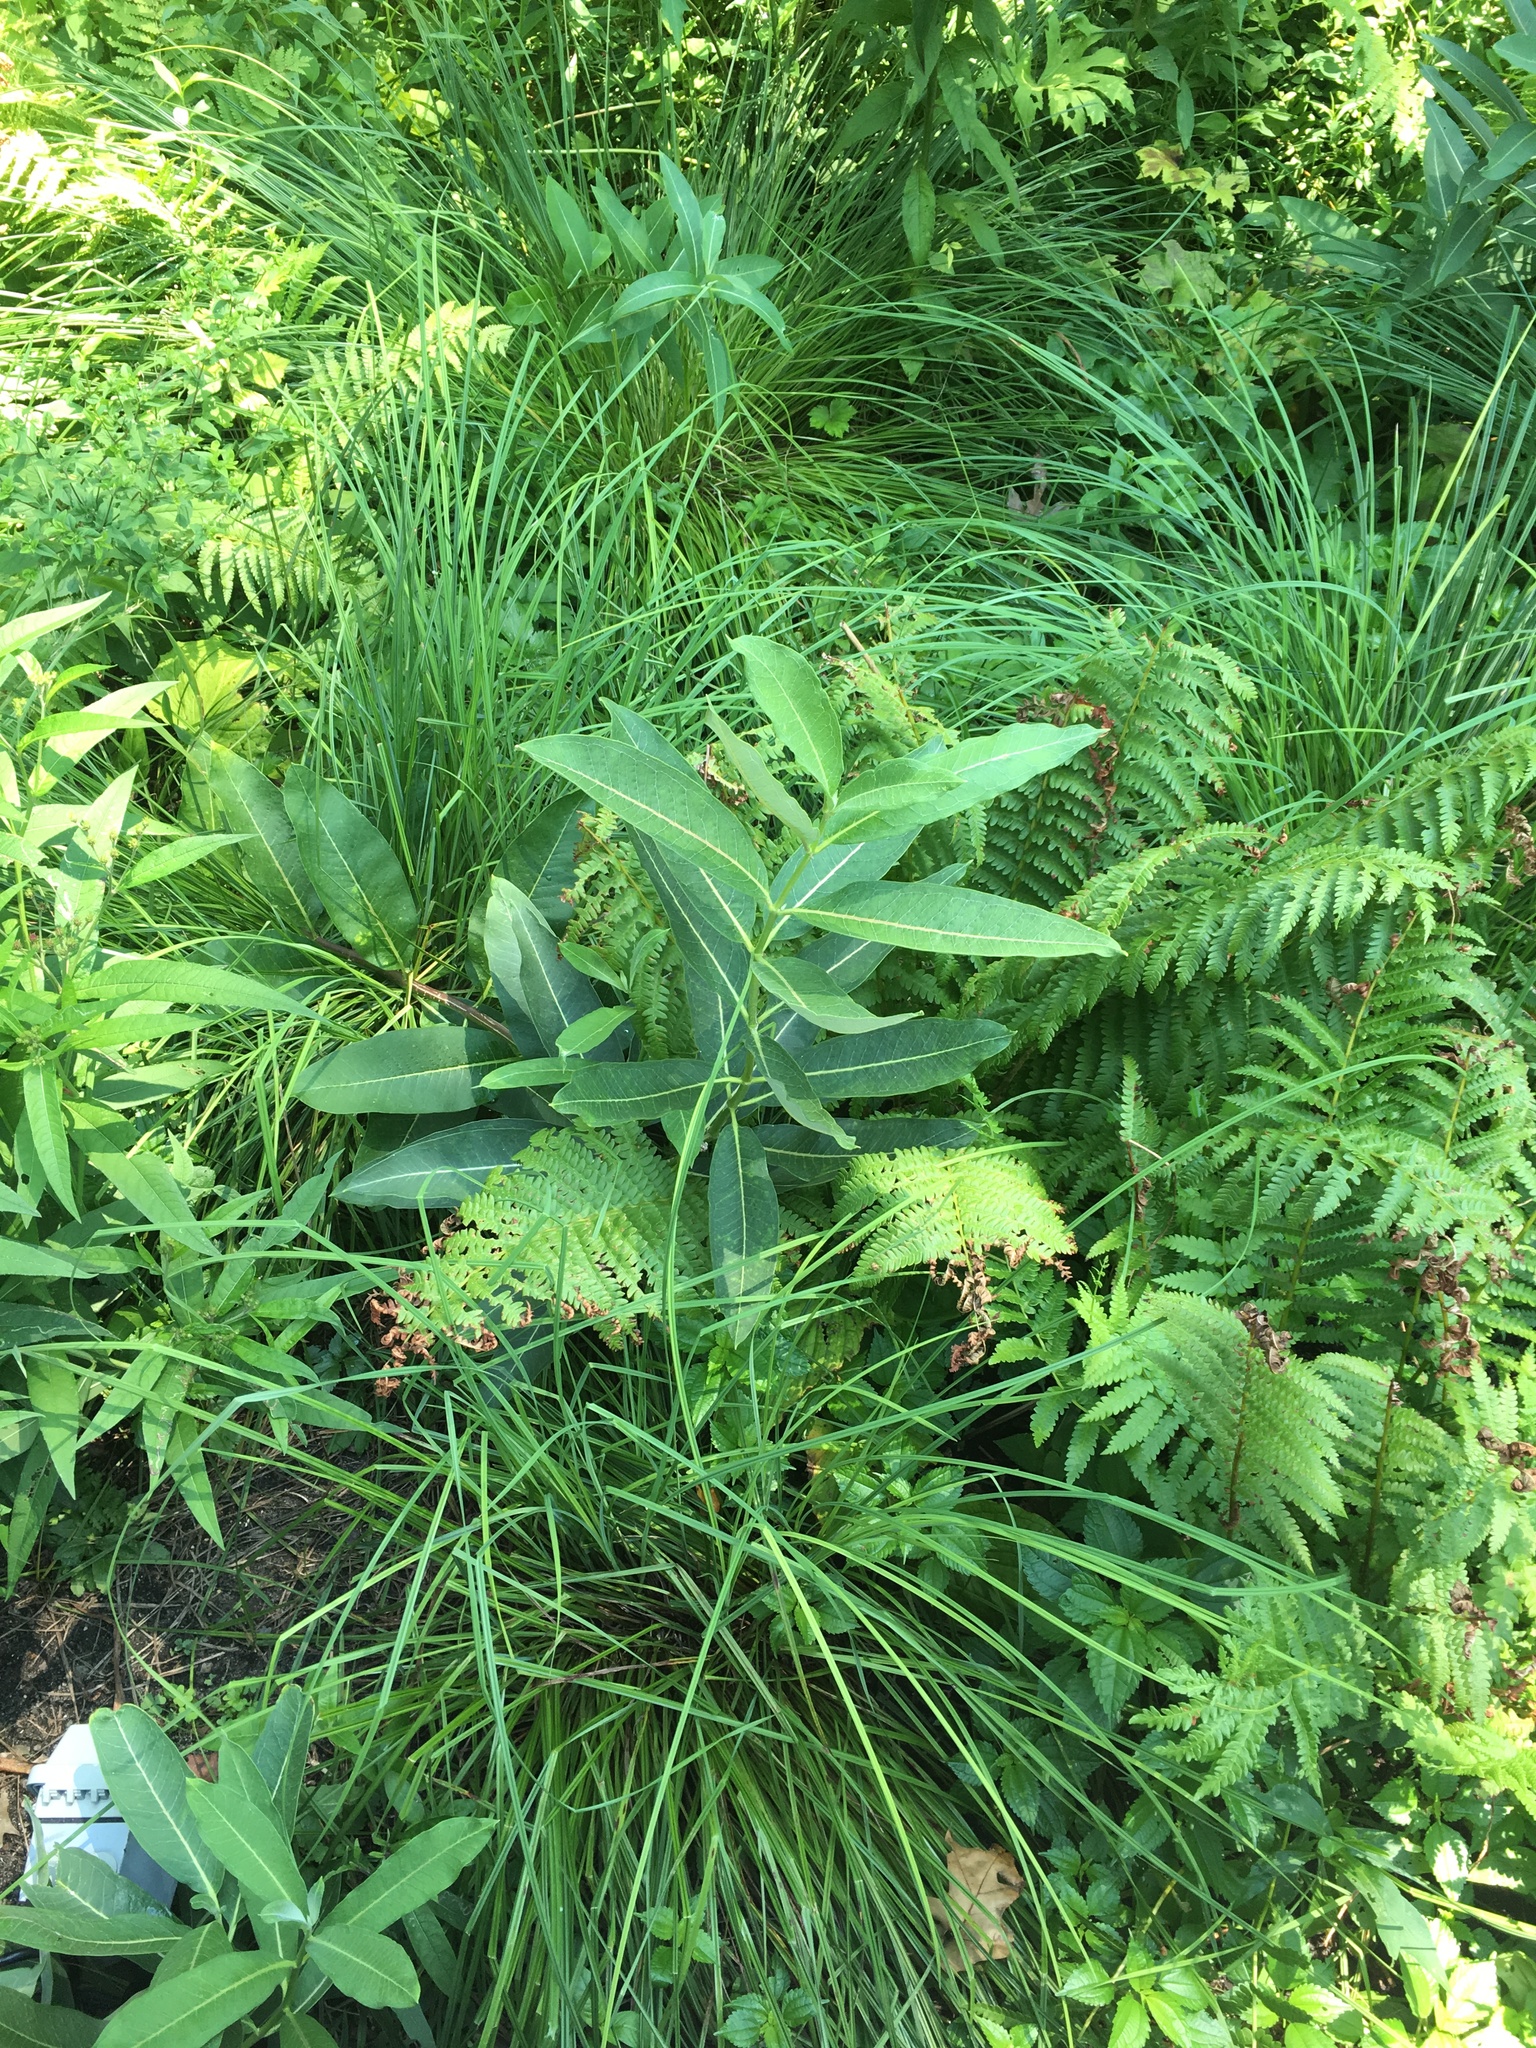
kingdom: Plantae
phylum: Tracheophyta
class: Magnoliopsida
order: Gentianales
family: Apocynaceae
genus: Asclepias
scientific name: Asclepias syriaca
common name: Common milkweed
